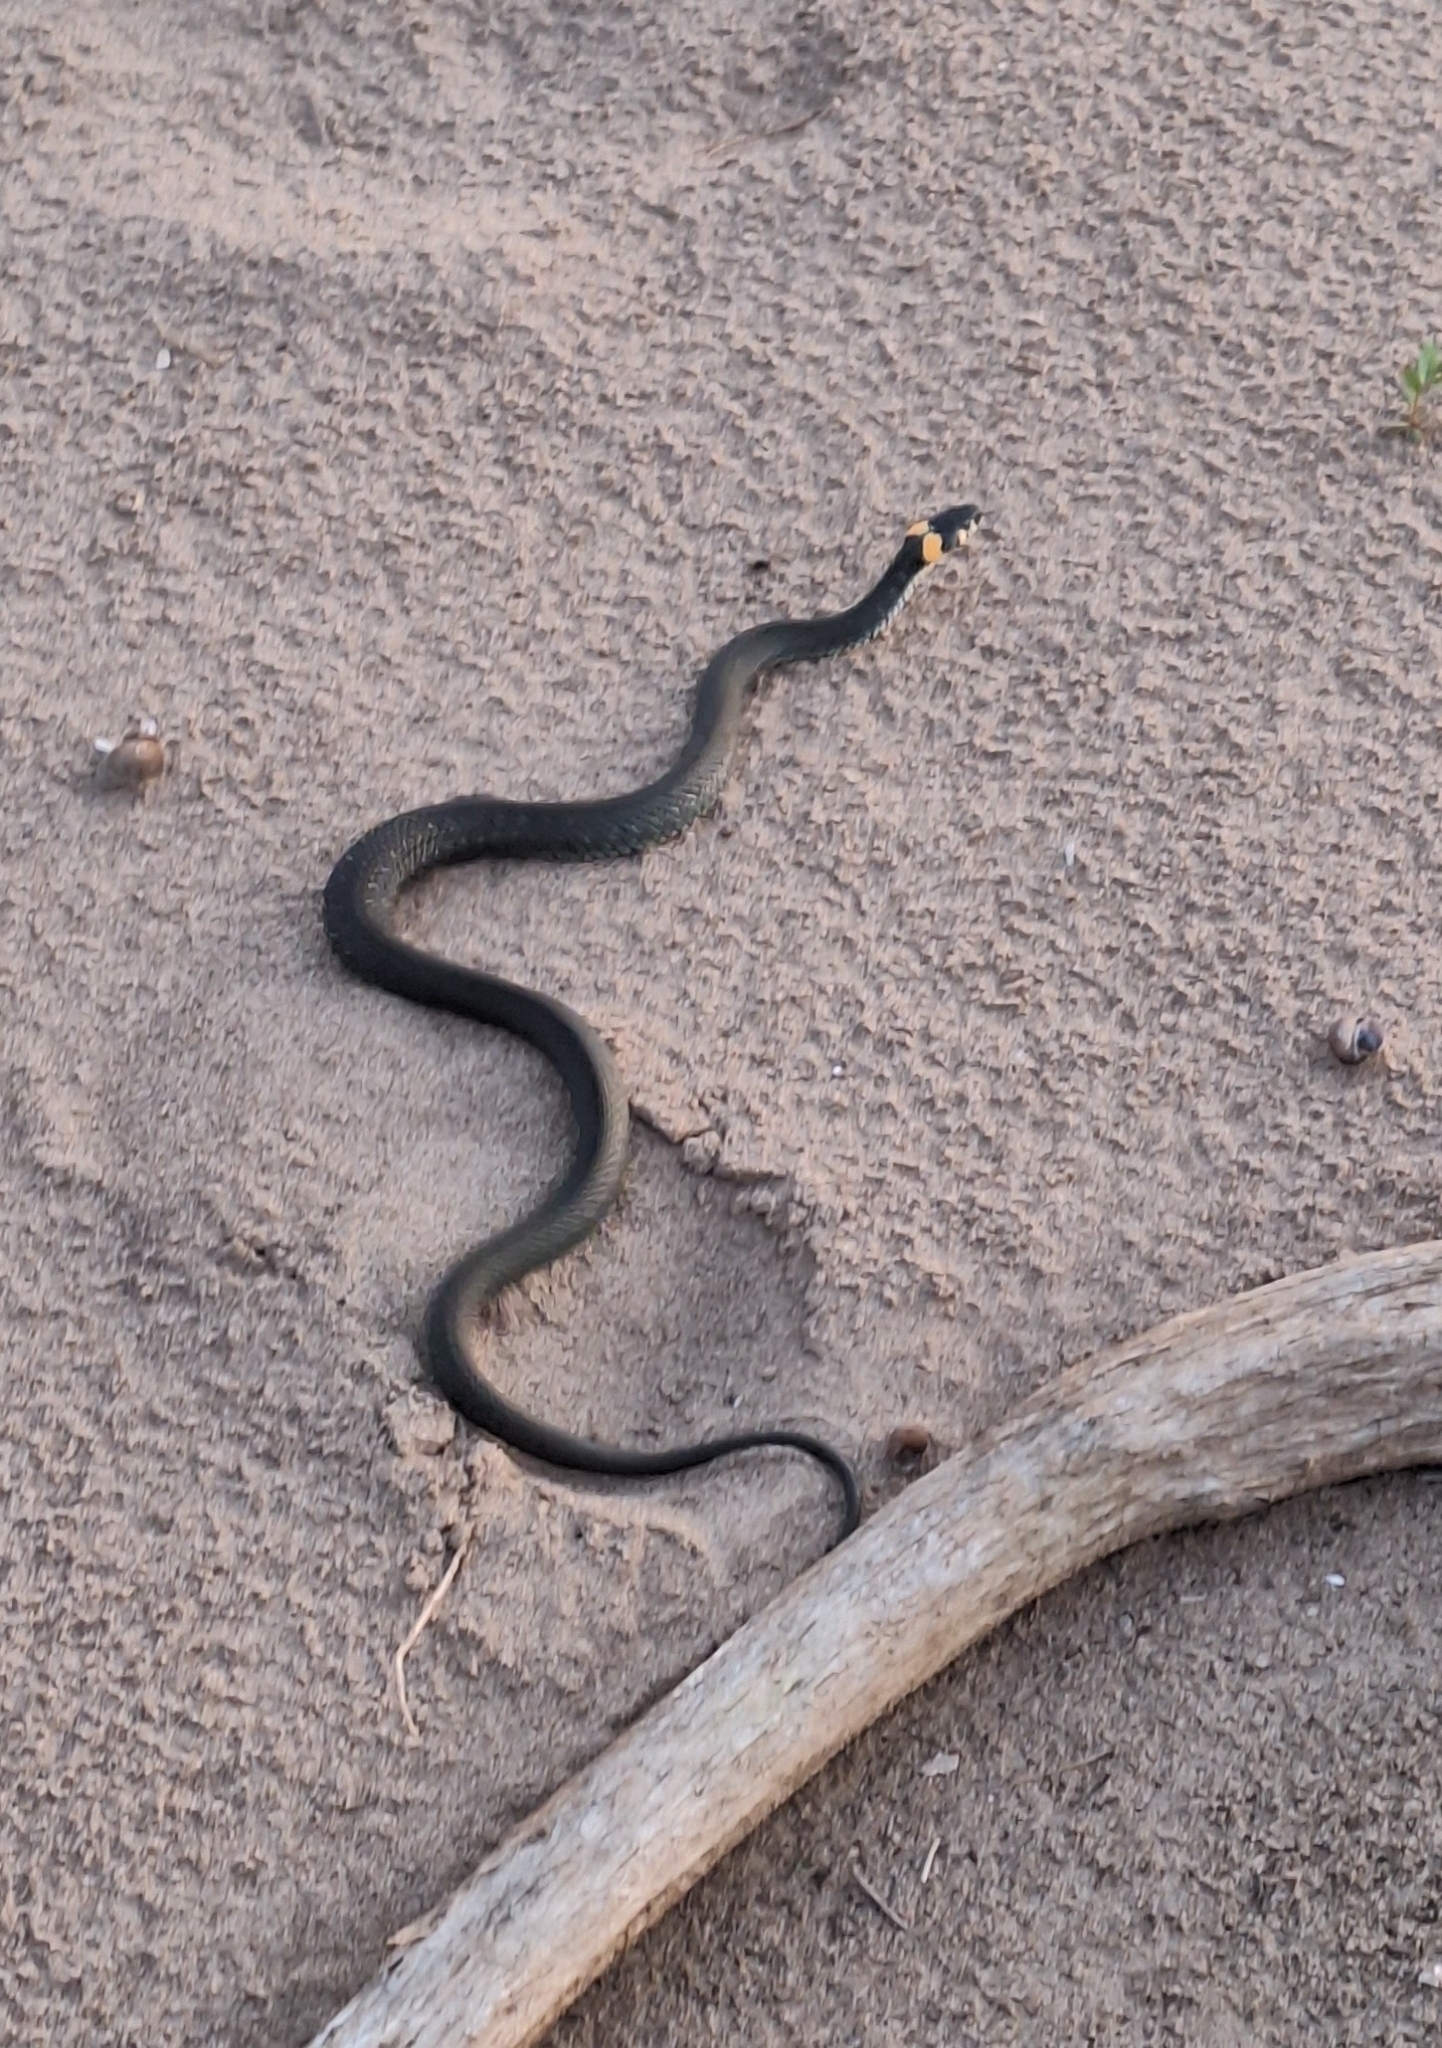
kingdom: Animalia
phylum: Chordata
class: Squamata
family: Colubridae
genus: Natrix
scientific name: Natrix natrix
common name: Grass snake
